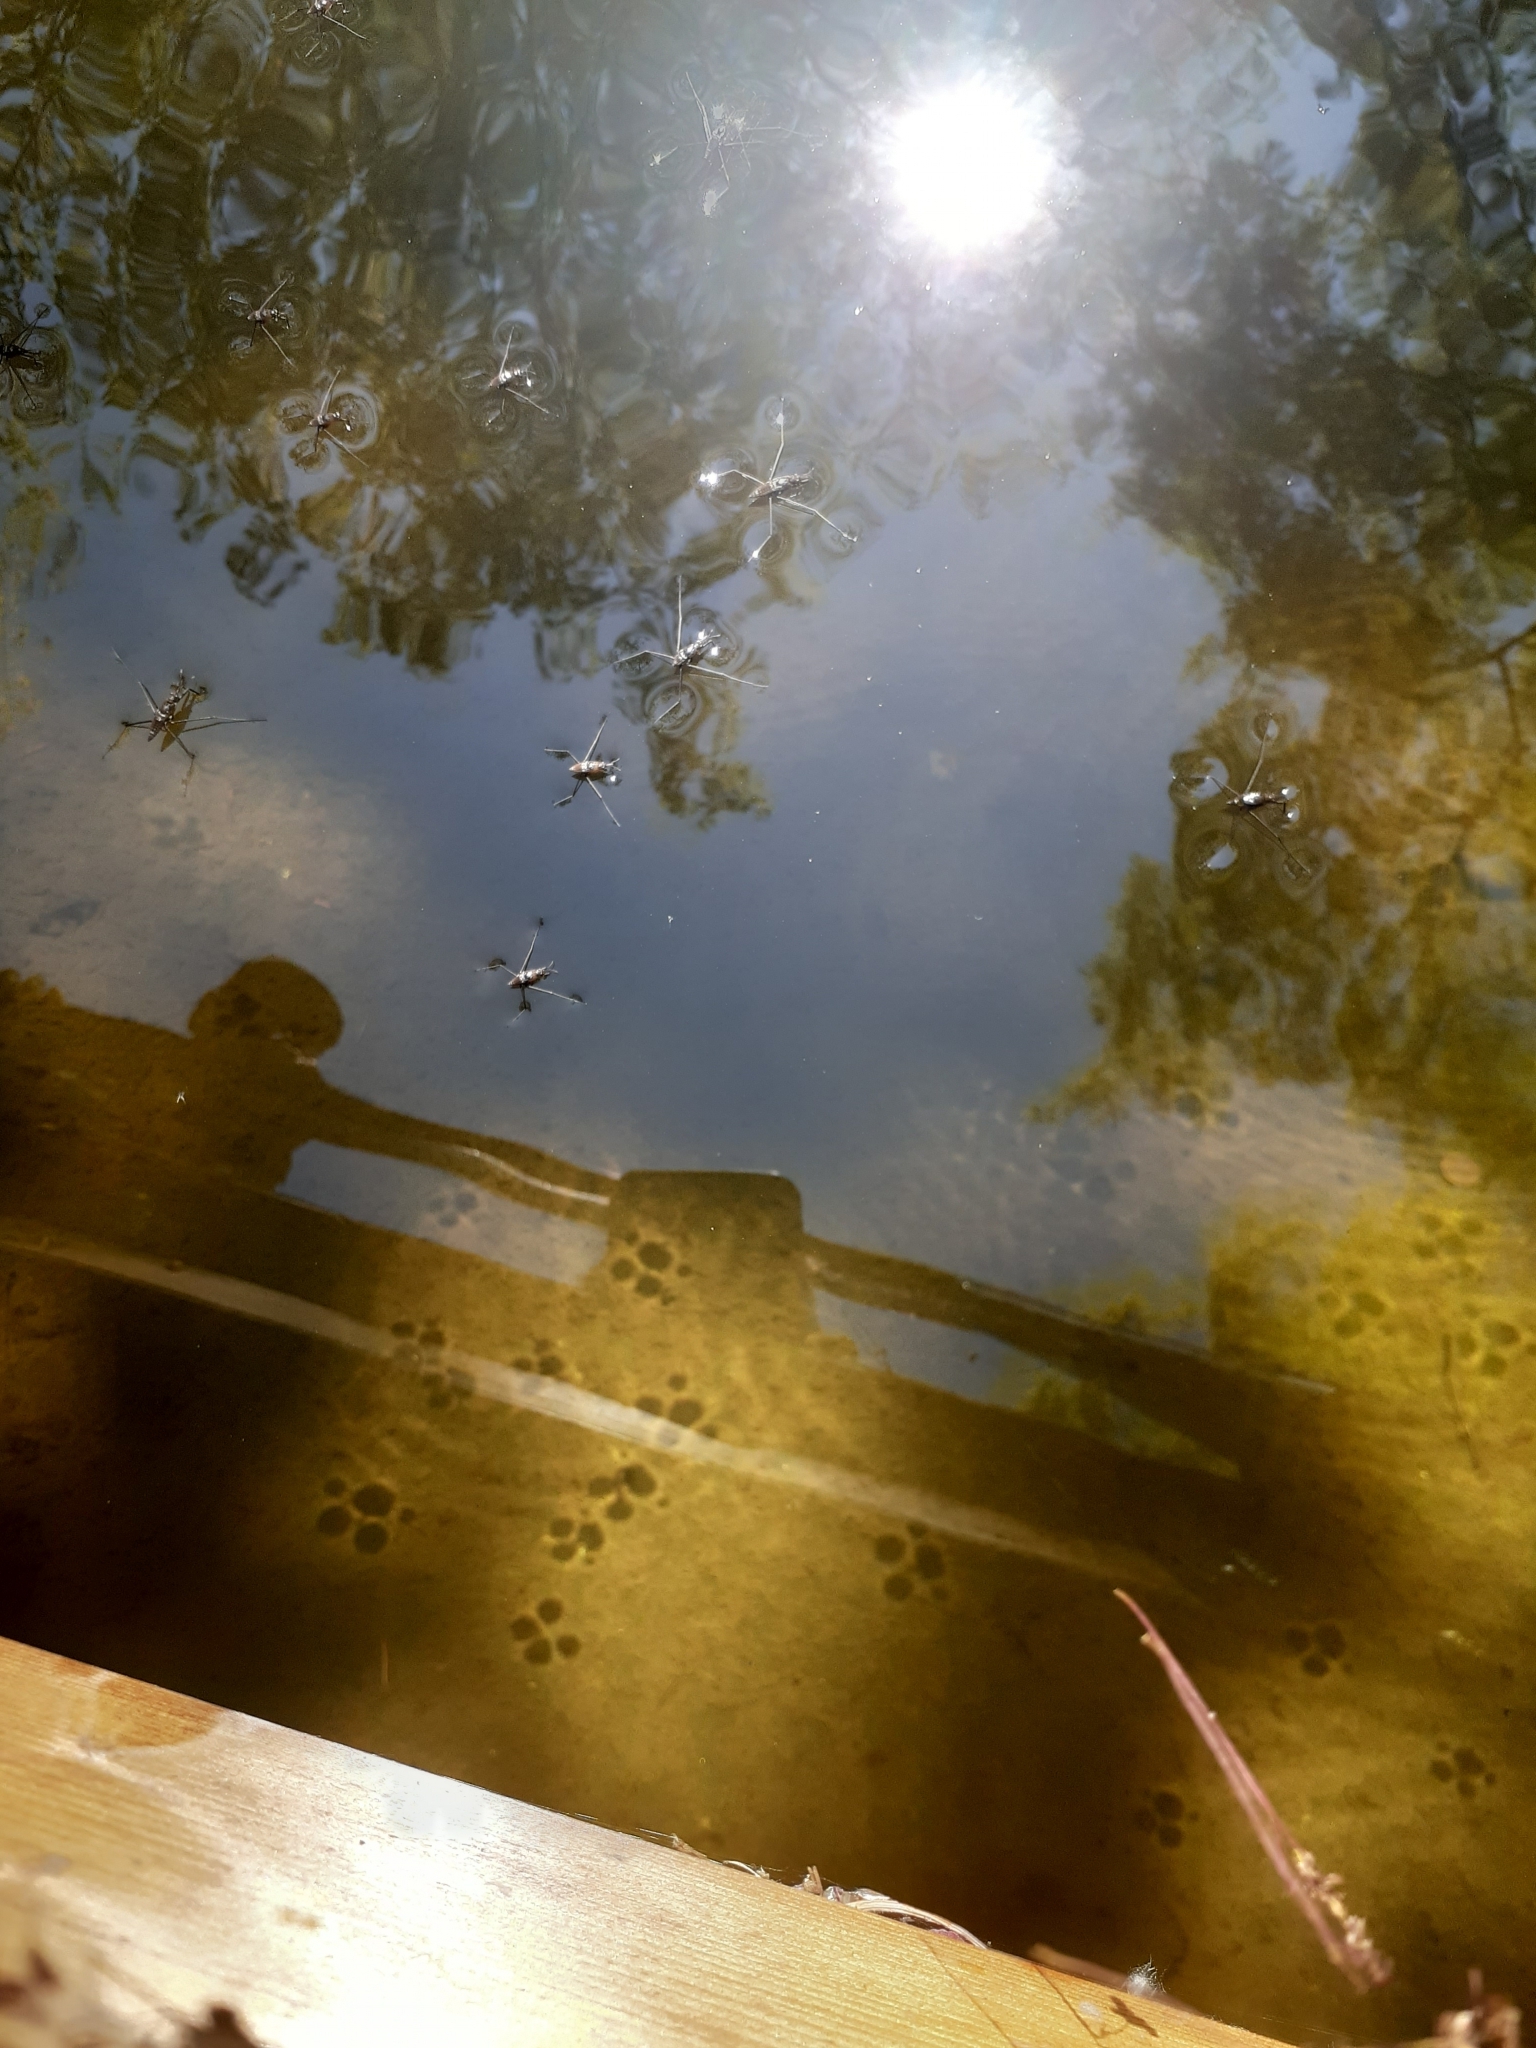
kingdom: Animalia
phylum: Arthropoda
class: Insecta
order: Hemiptera
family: Gerridae
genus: Aquarius
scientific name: Aquarius remigis
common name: Common water strider
